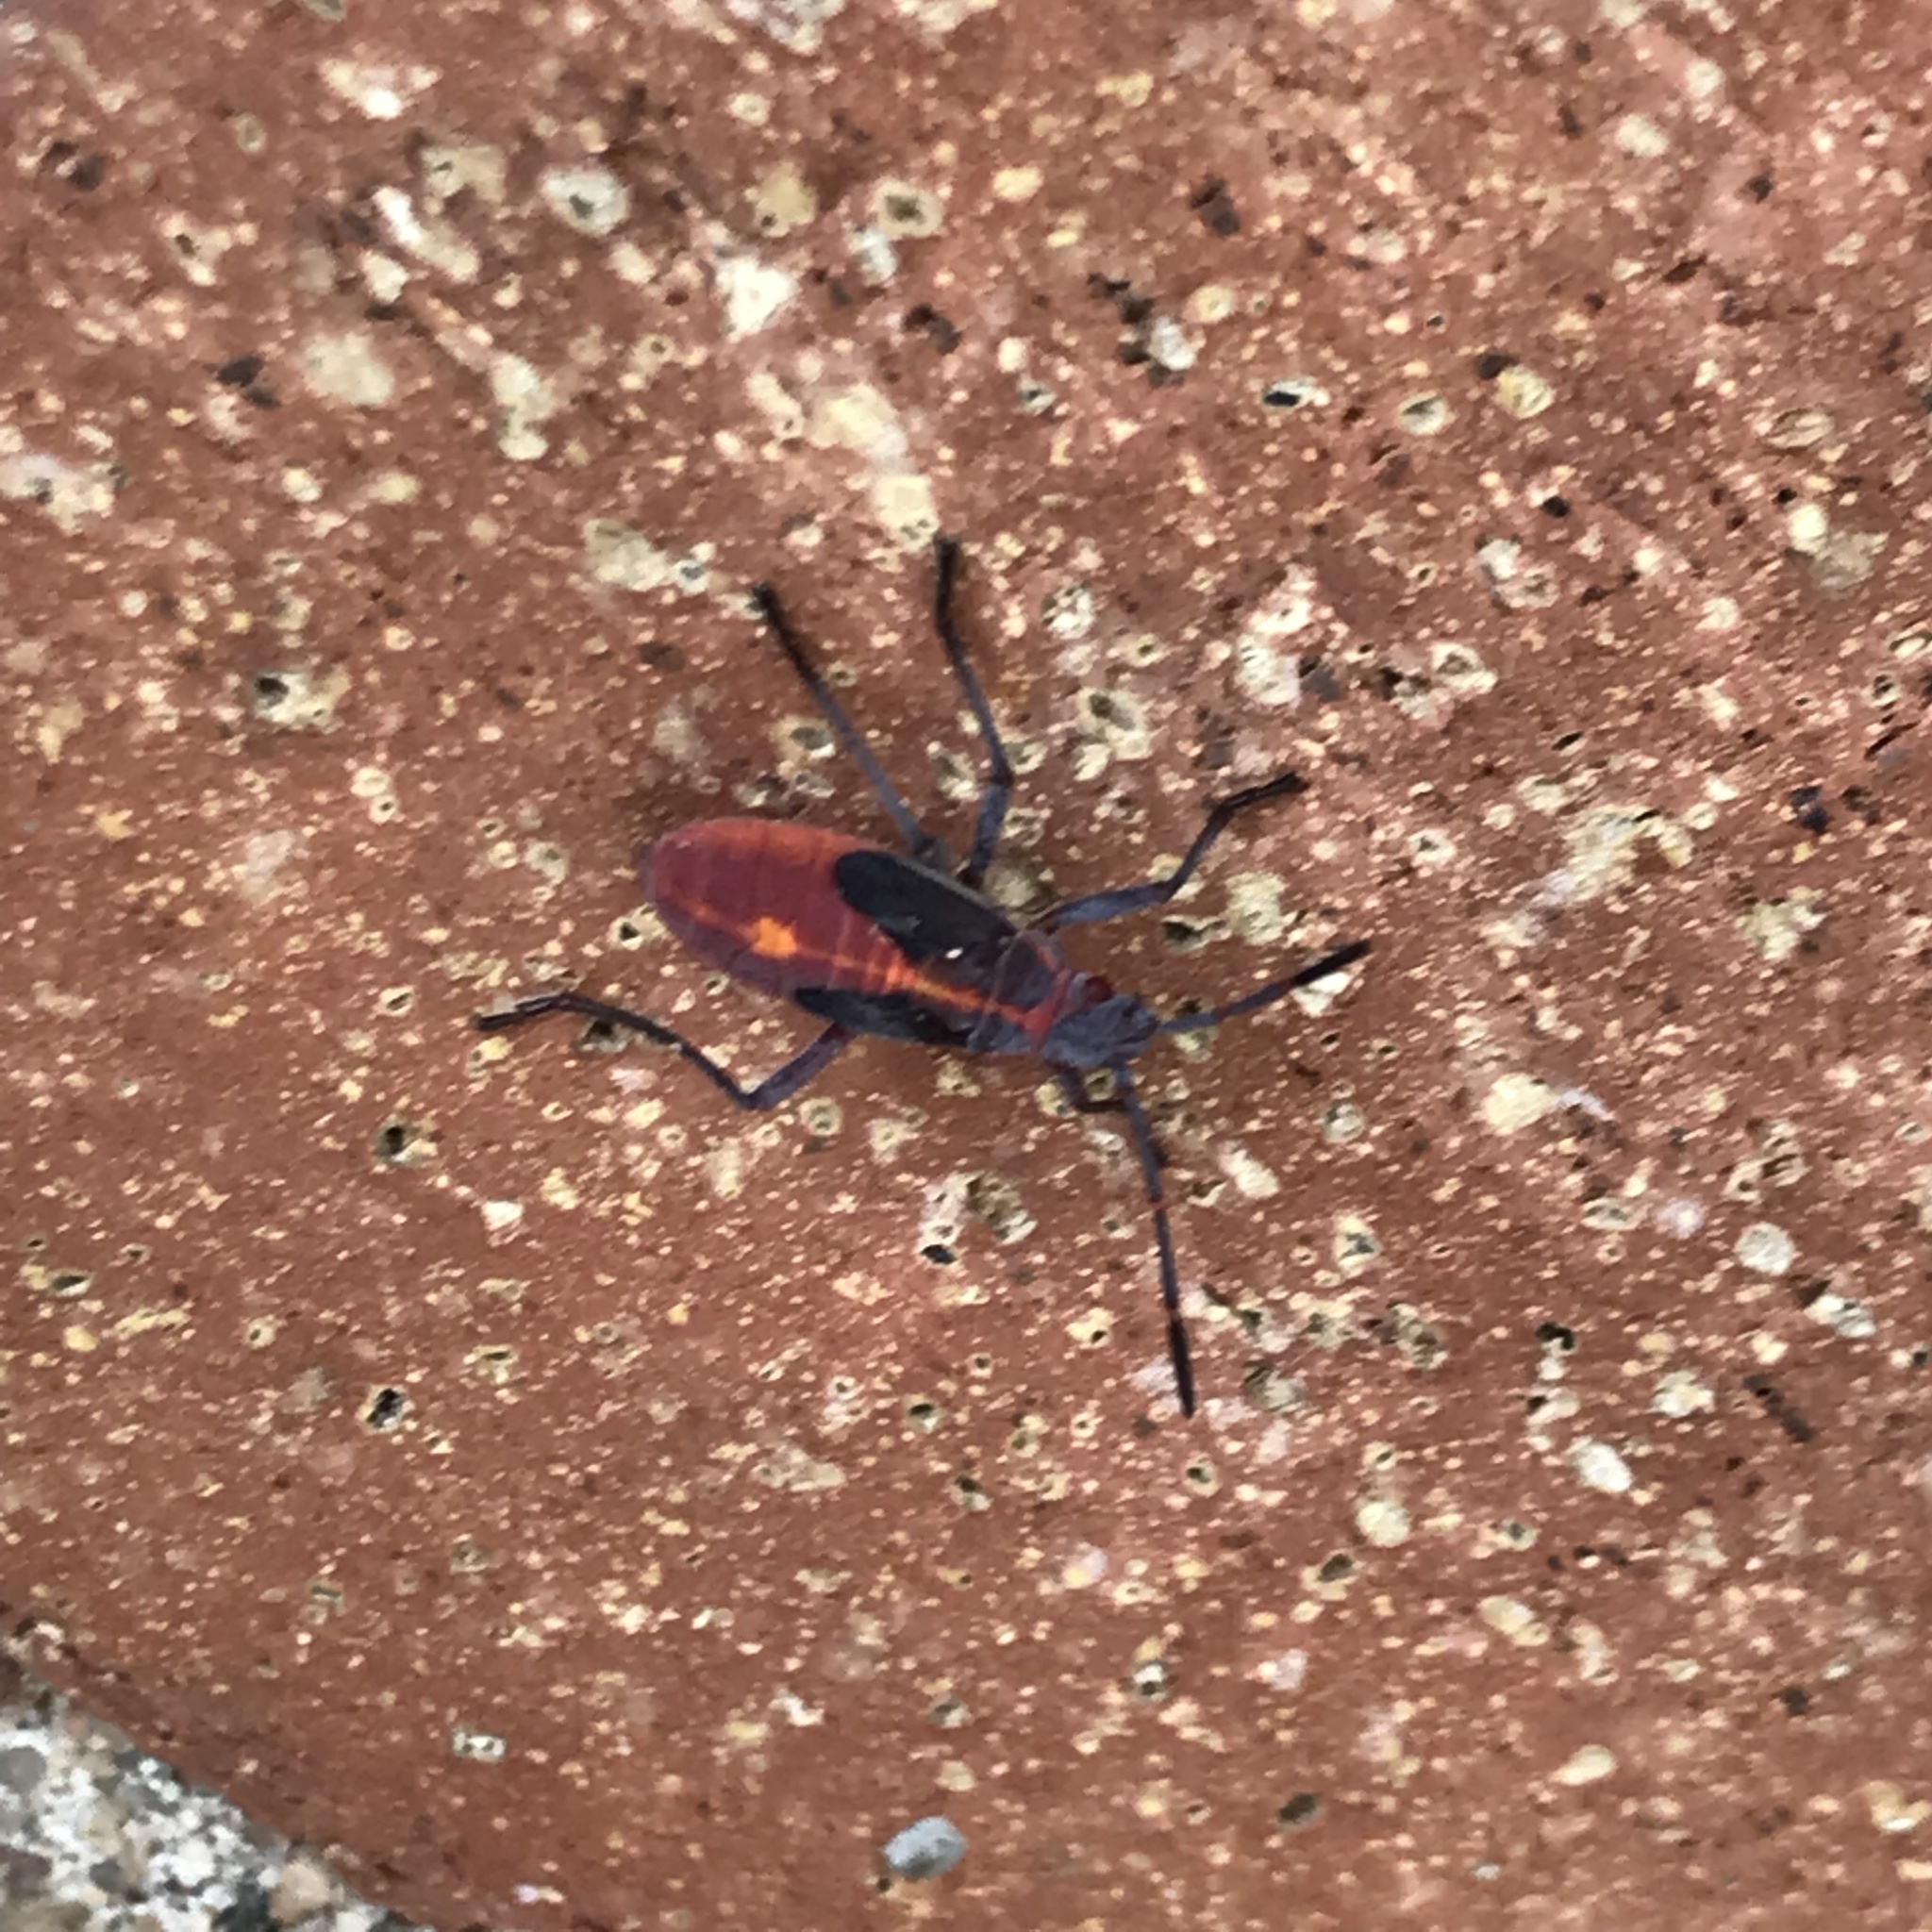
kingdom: Animalia
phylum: Arthropoda
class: Insecta
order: Hemiptera
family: Rhopalidae
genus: Boisea
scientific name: Boisea trivittata
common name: Boxelder bug
